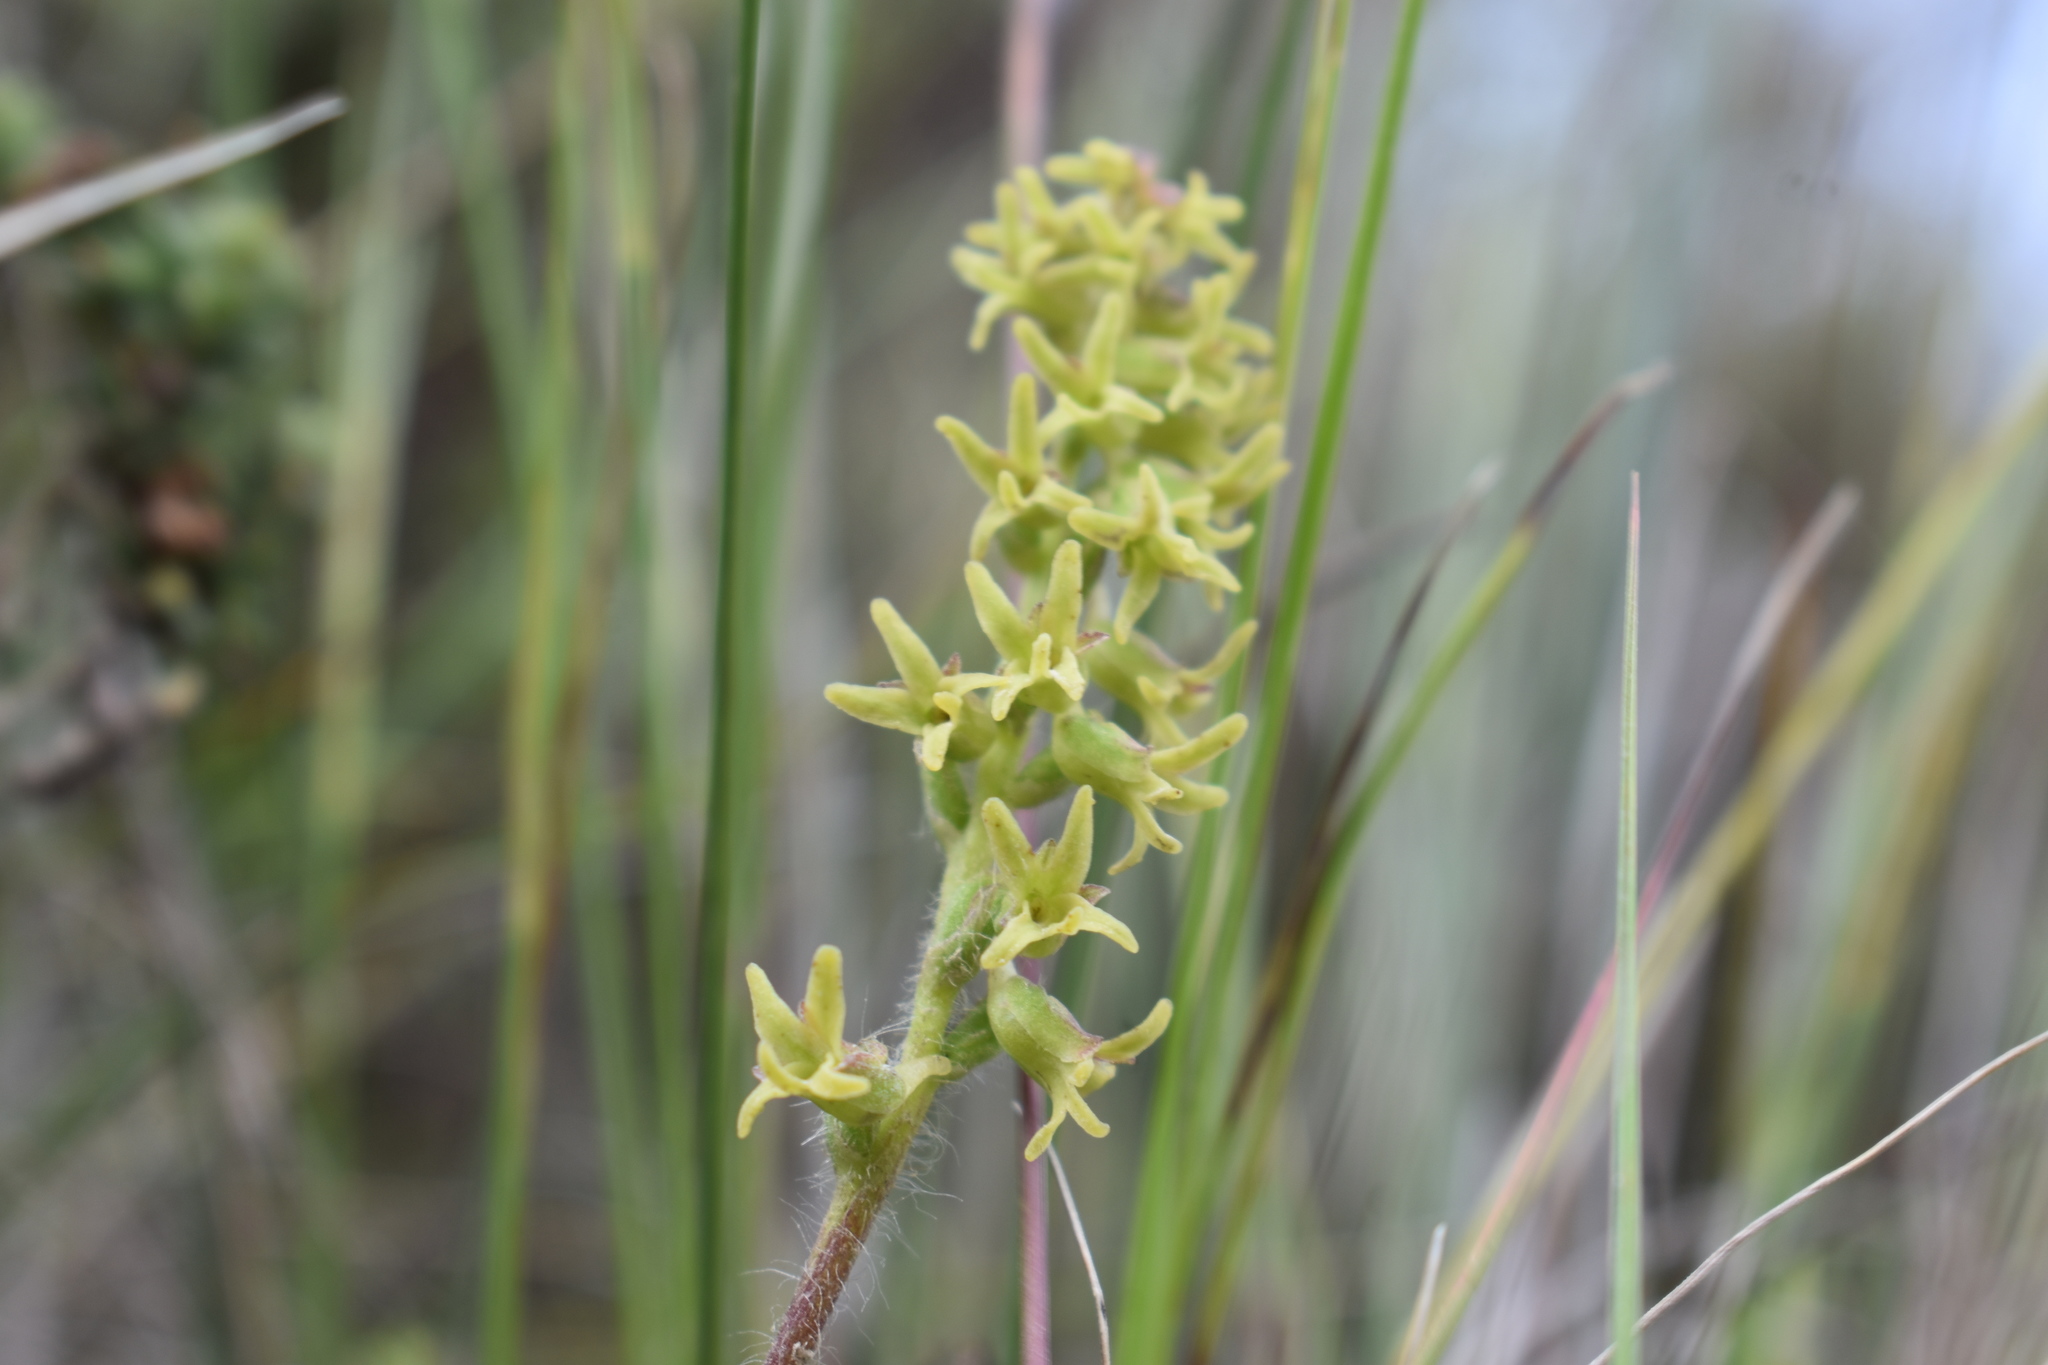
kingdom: Plantae
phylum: Tracheophyta
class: Liliopsida
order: Asparagales
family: Orchidaceae
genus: Holothrix
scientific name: Holothrix condensata
